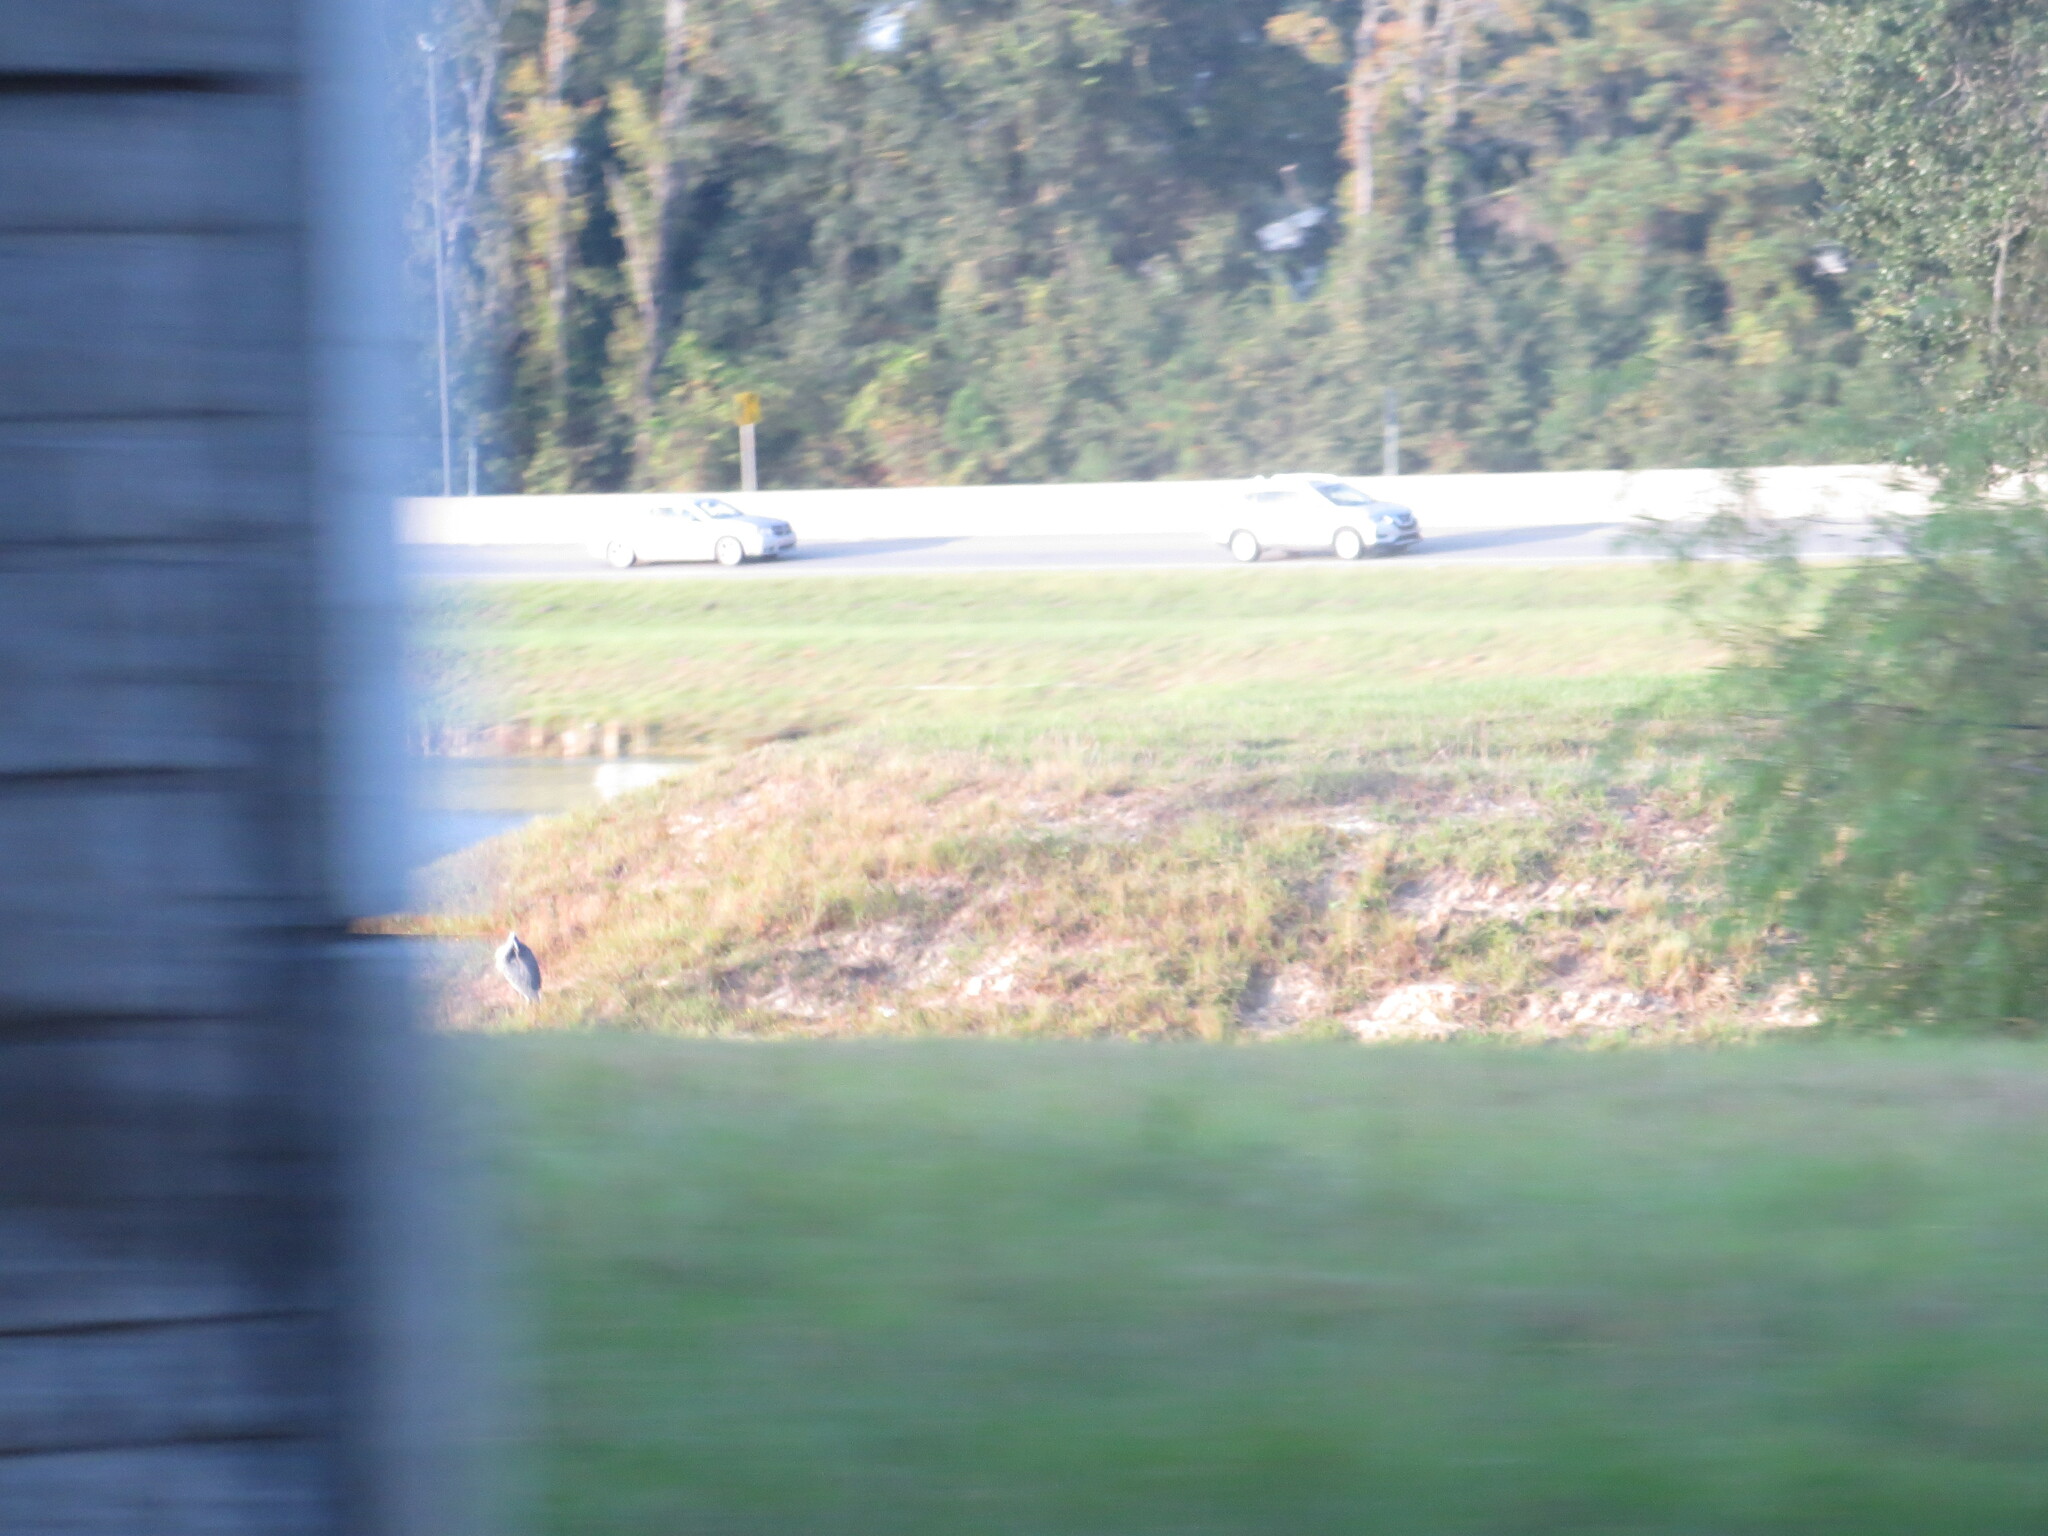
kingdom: Animalia
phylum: Chordata
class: Aves
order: Pelecaniformes
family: Ardeidae
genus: Ardea
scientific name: Ardea herodias
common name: Great blue heron
